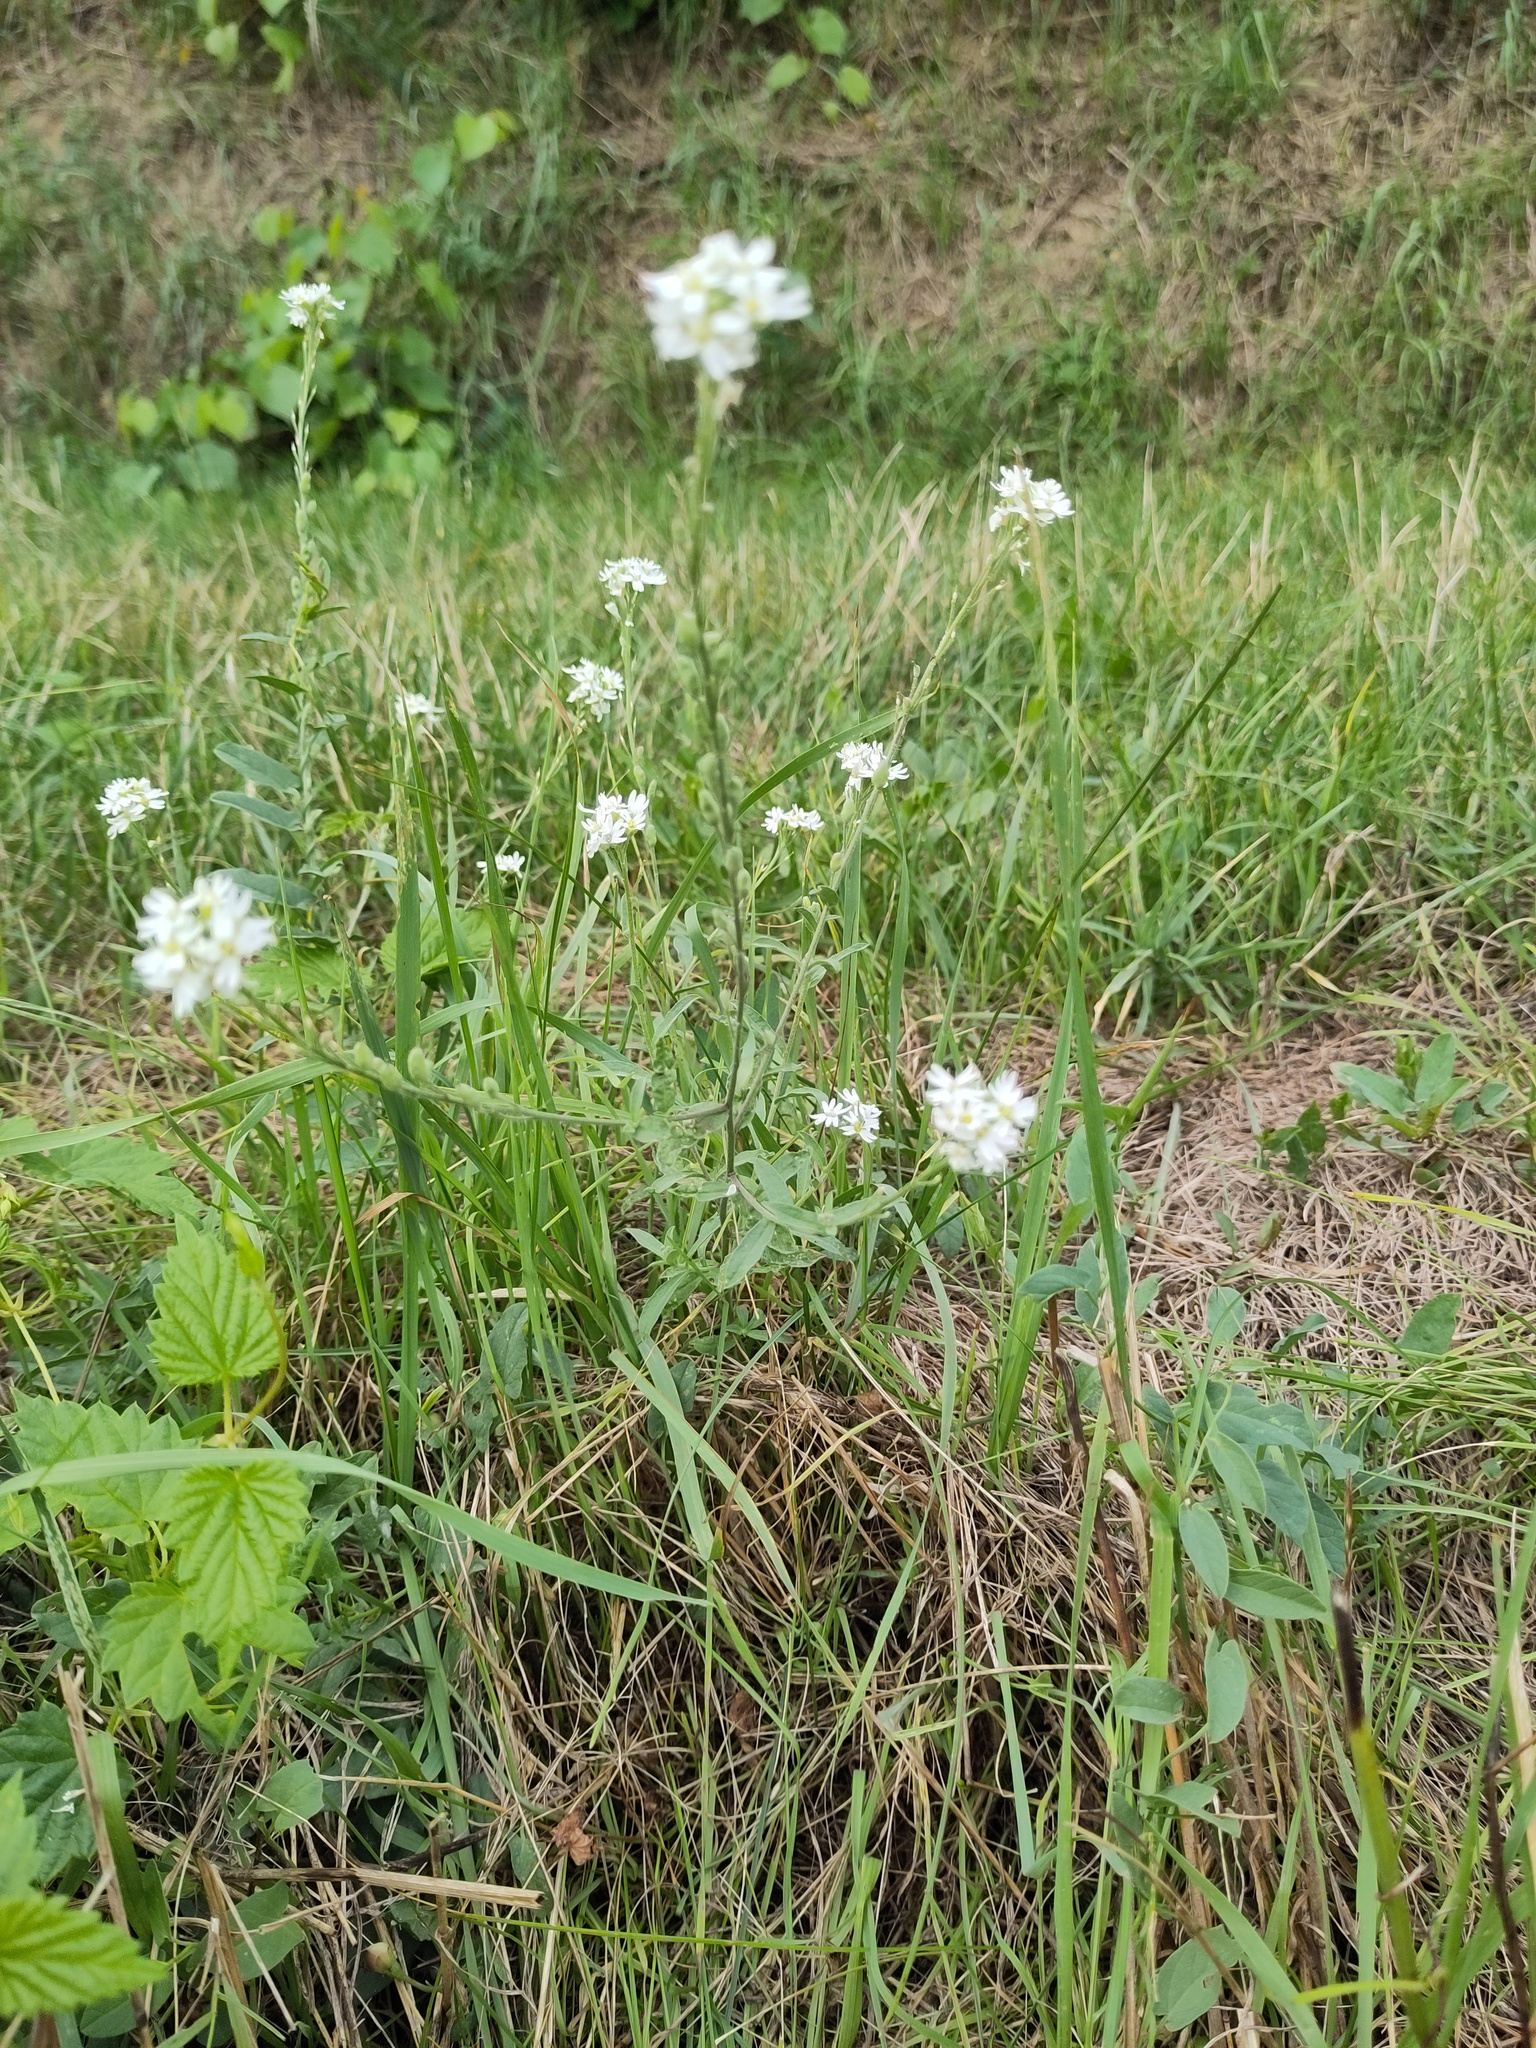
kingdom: Plantae
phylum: Tracheophyta
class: Magnoliopsida
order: Brassicales
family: Brassicaceae
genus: Berteroa
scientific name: Berteroa incana
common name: Hoary alison
